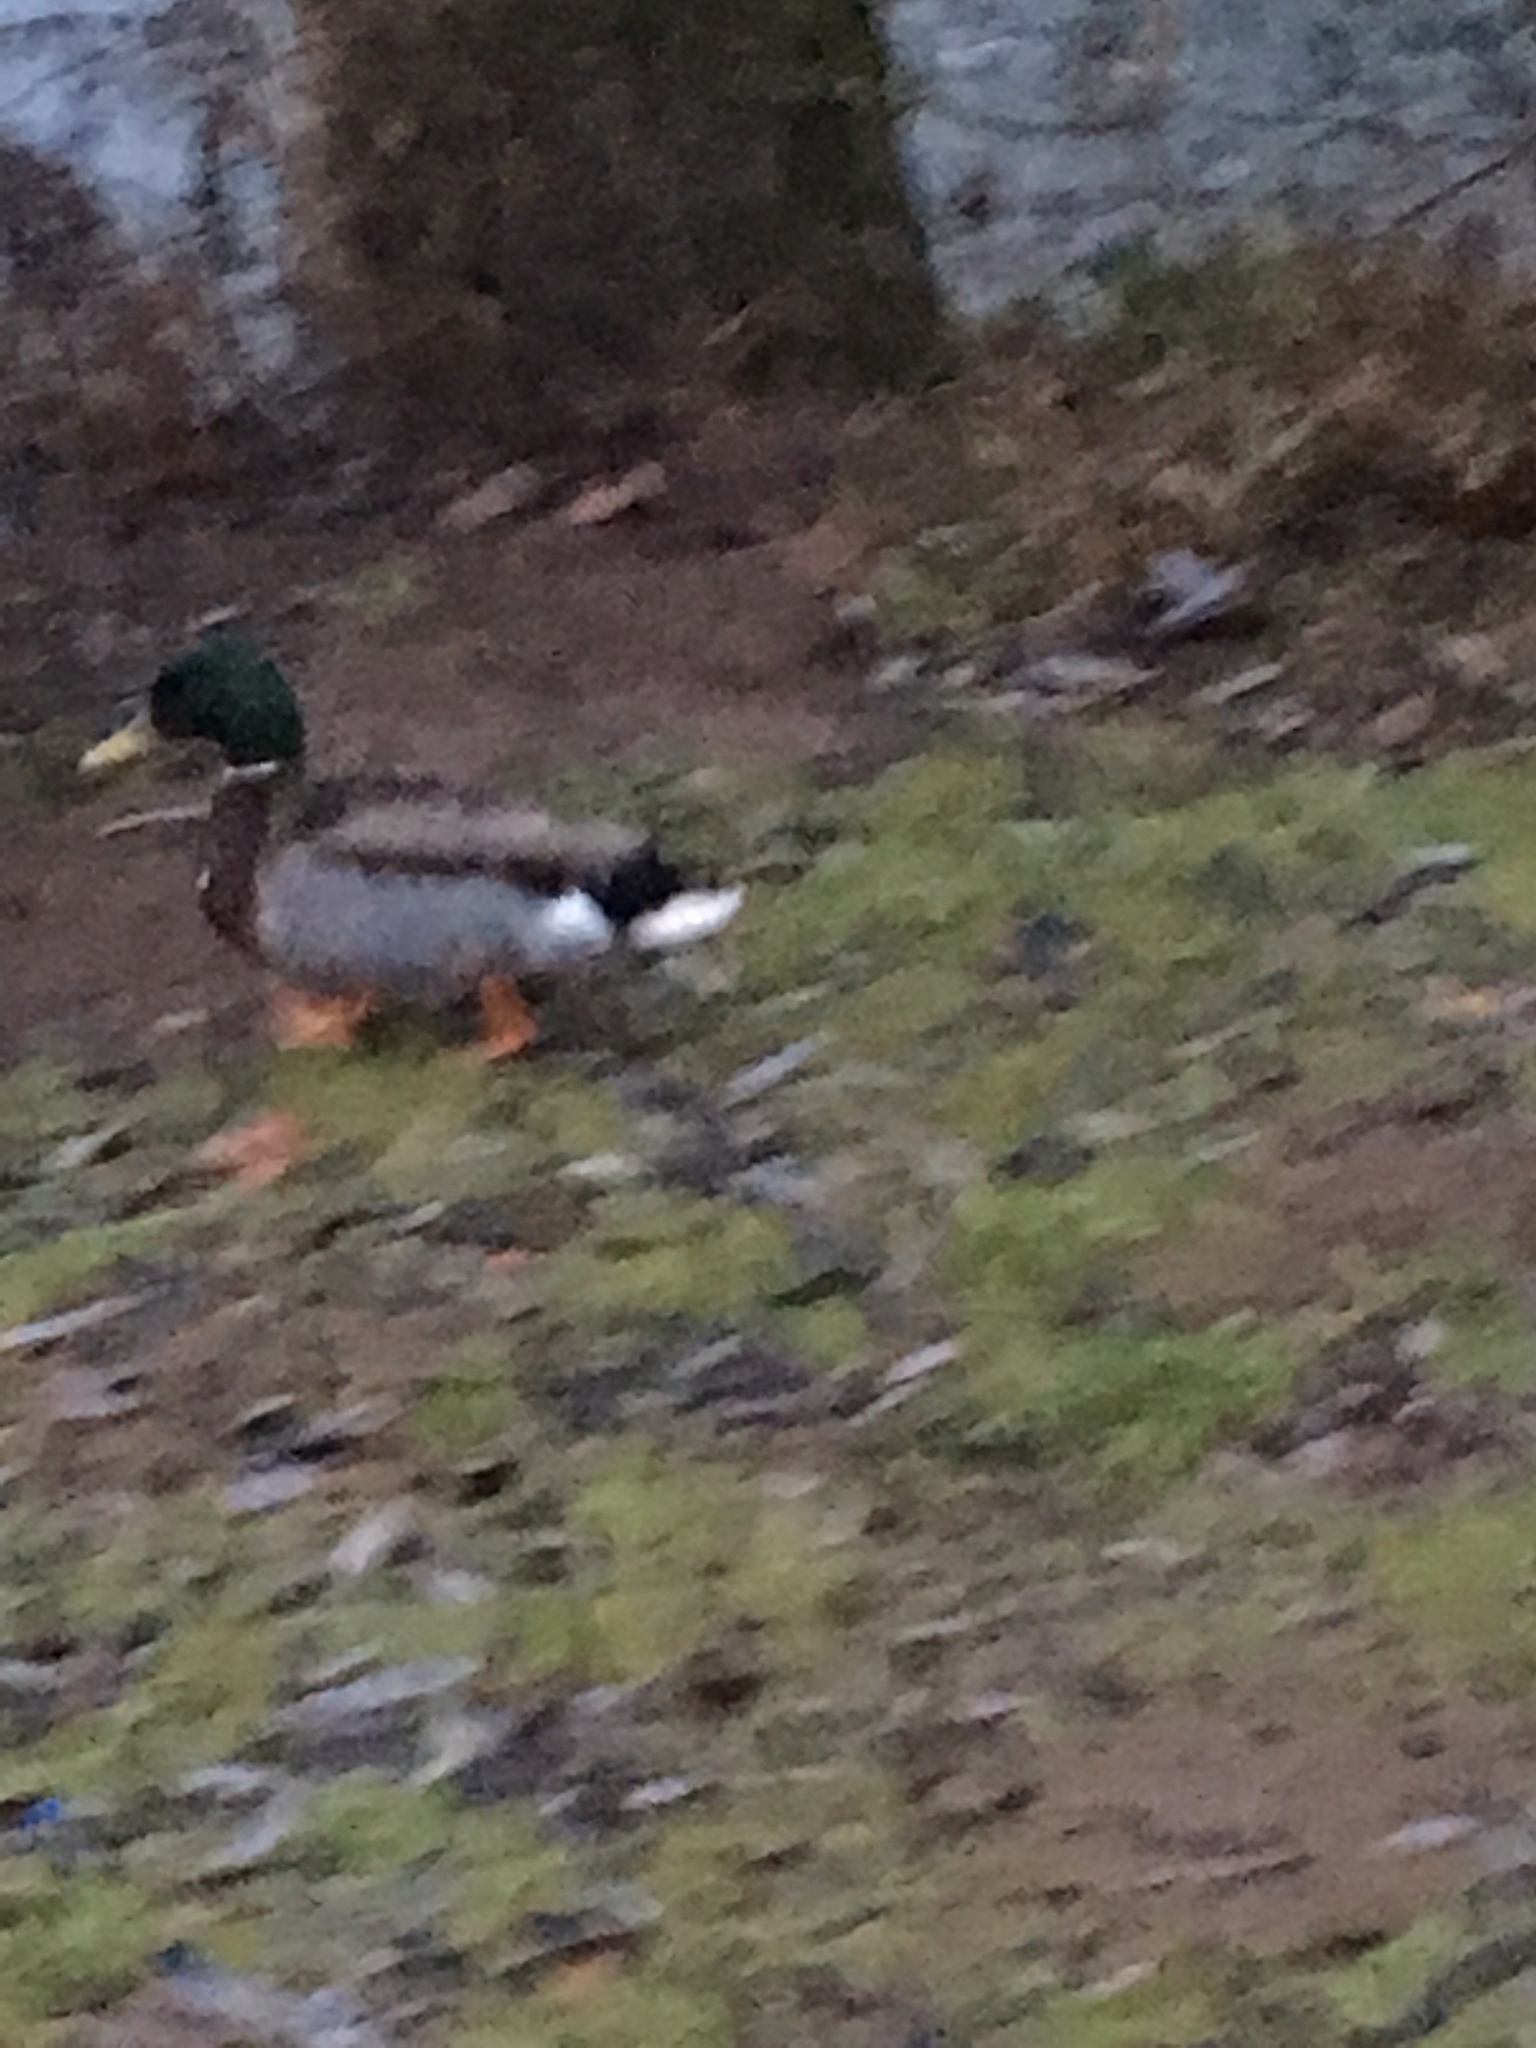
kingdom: Animalia
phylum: Chordata
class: Aves
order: Anseriformes
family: Anatidae
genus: Anas
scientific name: Anas platyrhynchos
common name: Mallard
